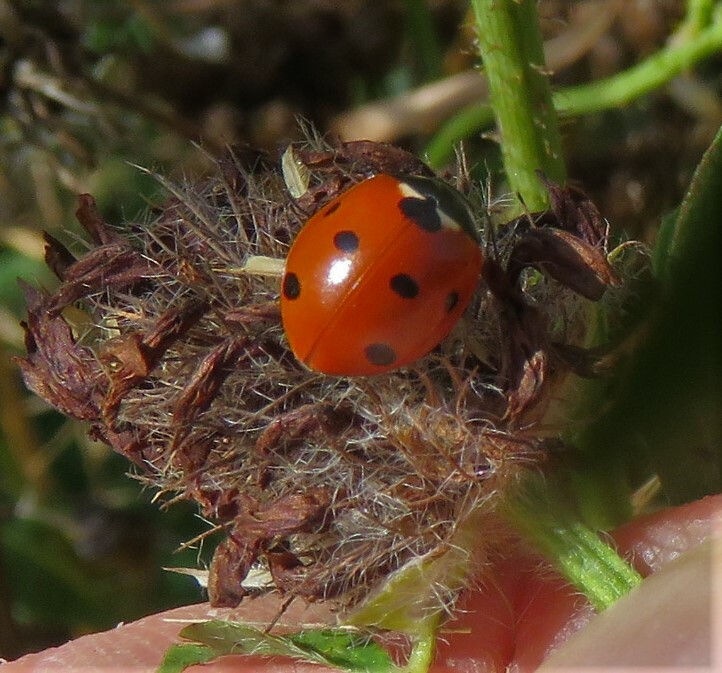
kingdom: Animalia
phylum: Arthropoda
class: Insecta
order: Coleoptera
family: Coccinellidae
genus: Coccinella
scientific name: Coccinella septempunctata
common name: Sevenspotted lady beetle
